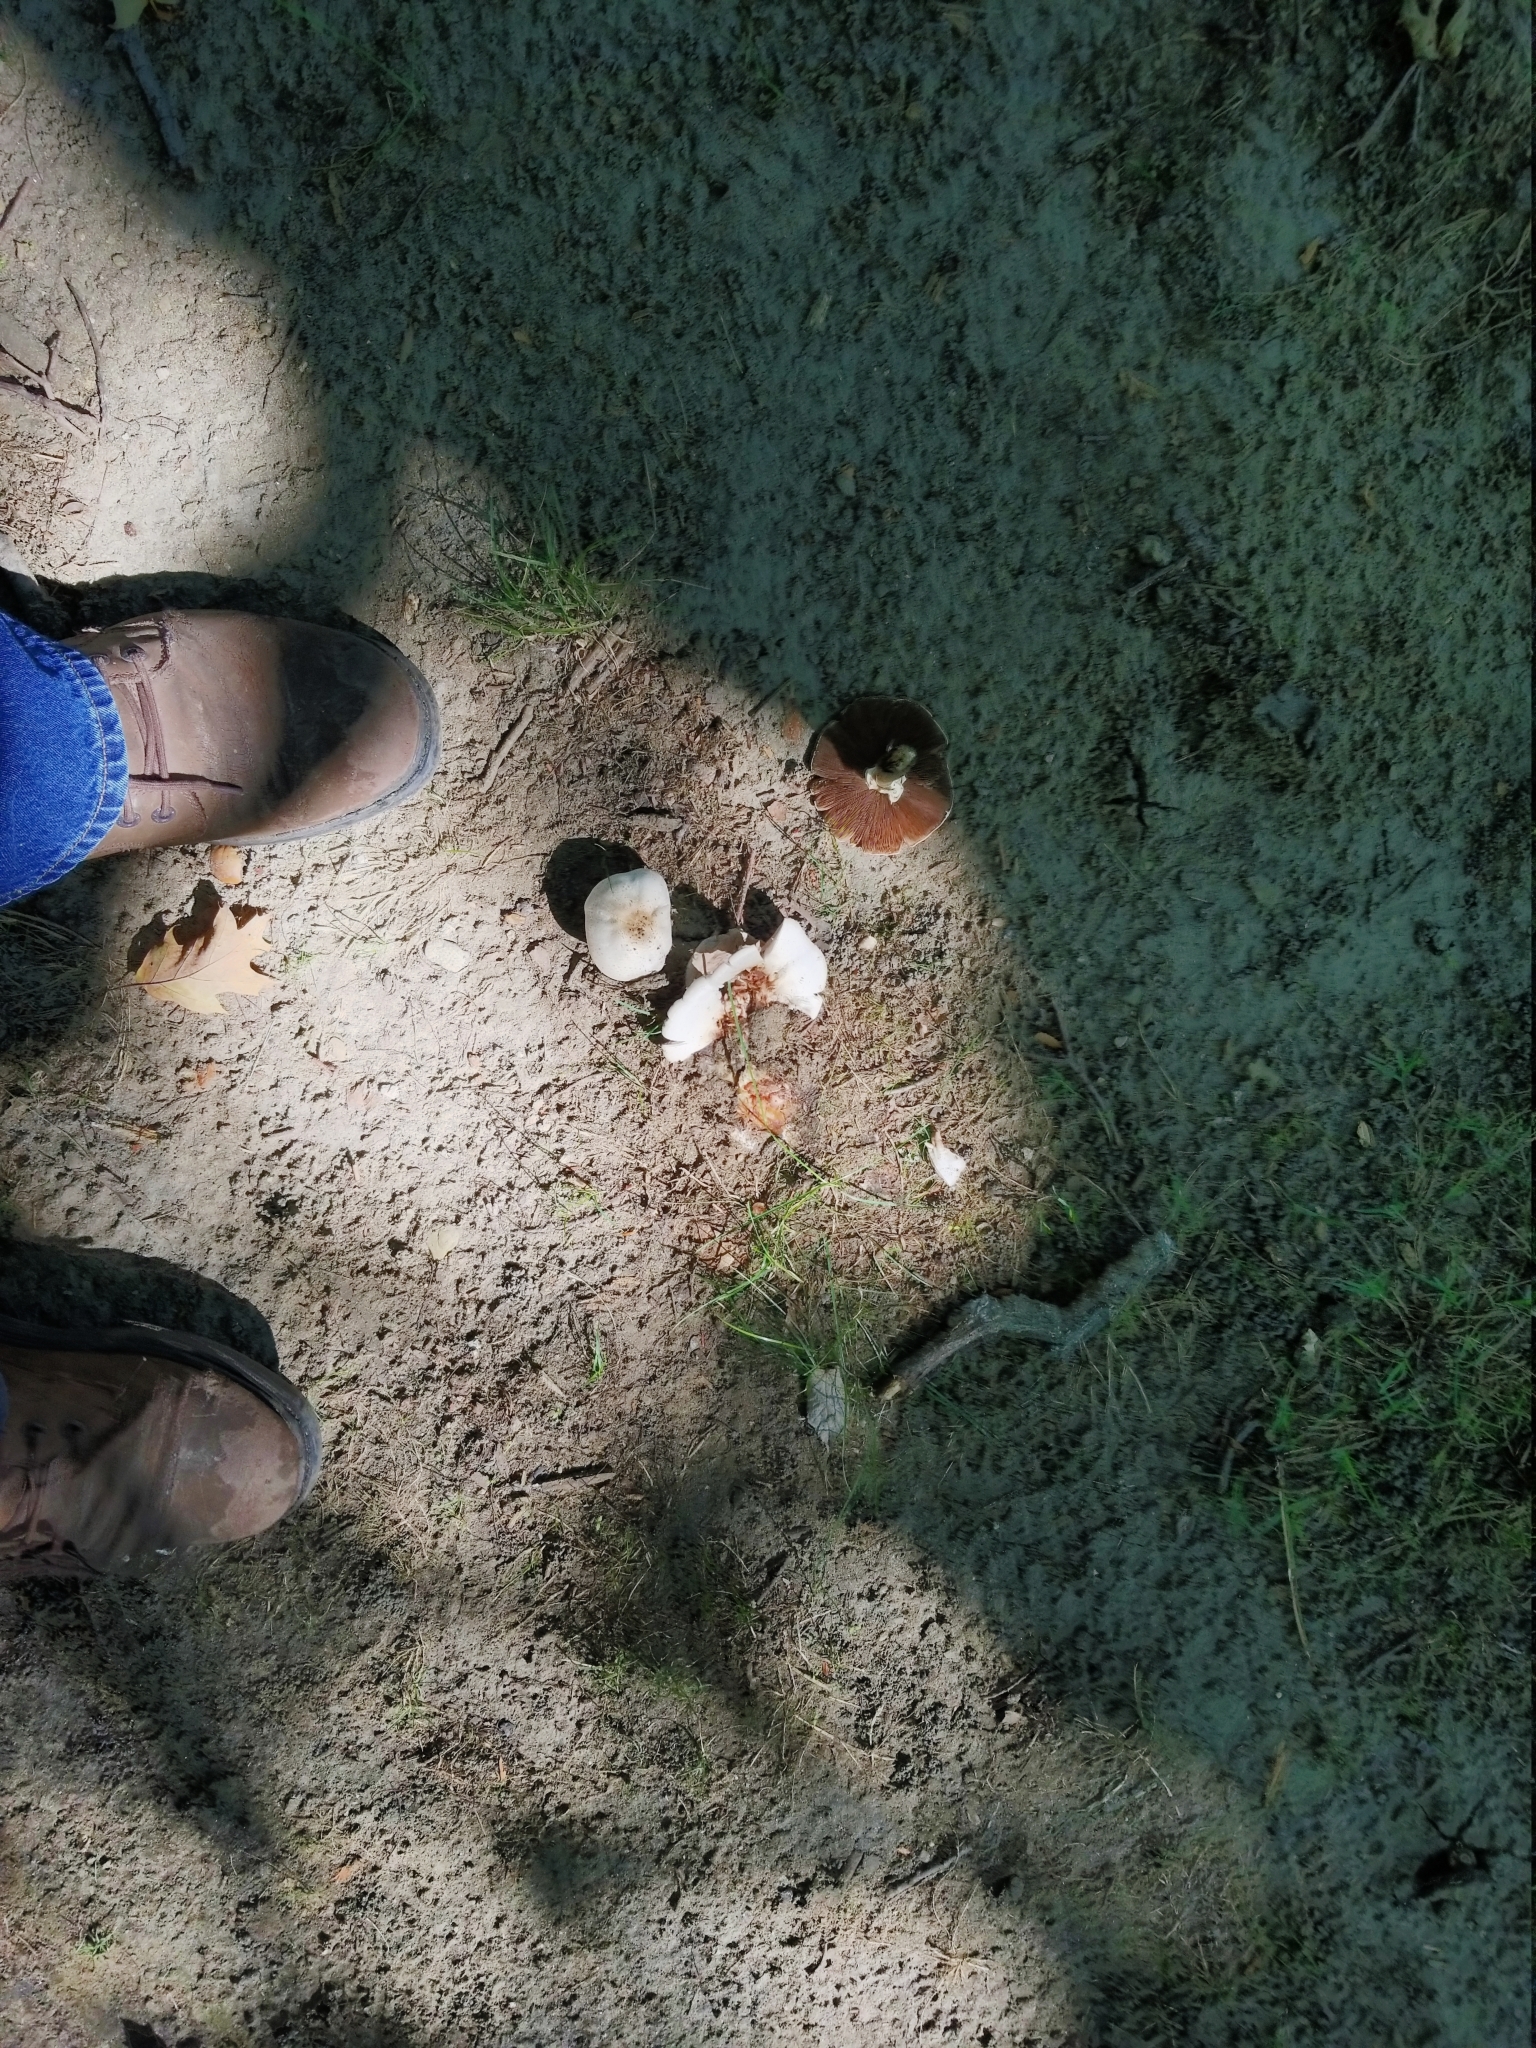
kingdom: Fungi
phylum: Basidiomycota
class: Agaricomycetes
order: Agaricales
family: Agaricaceae
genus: Agaricus
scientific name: Agaricus campestris
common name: Field mushroom
